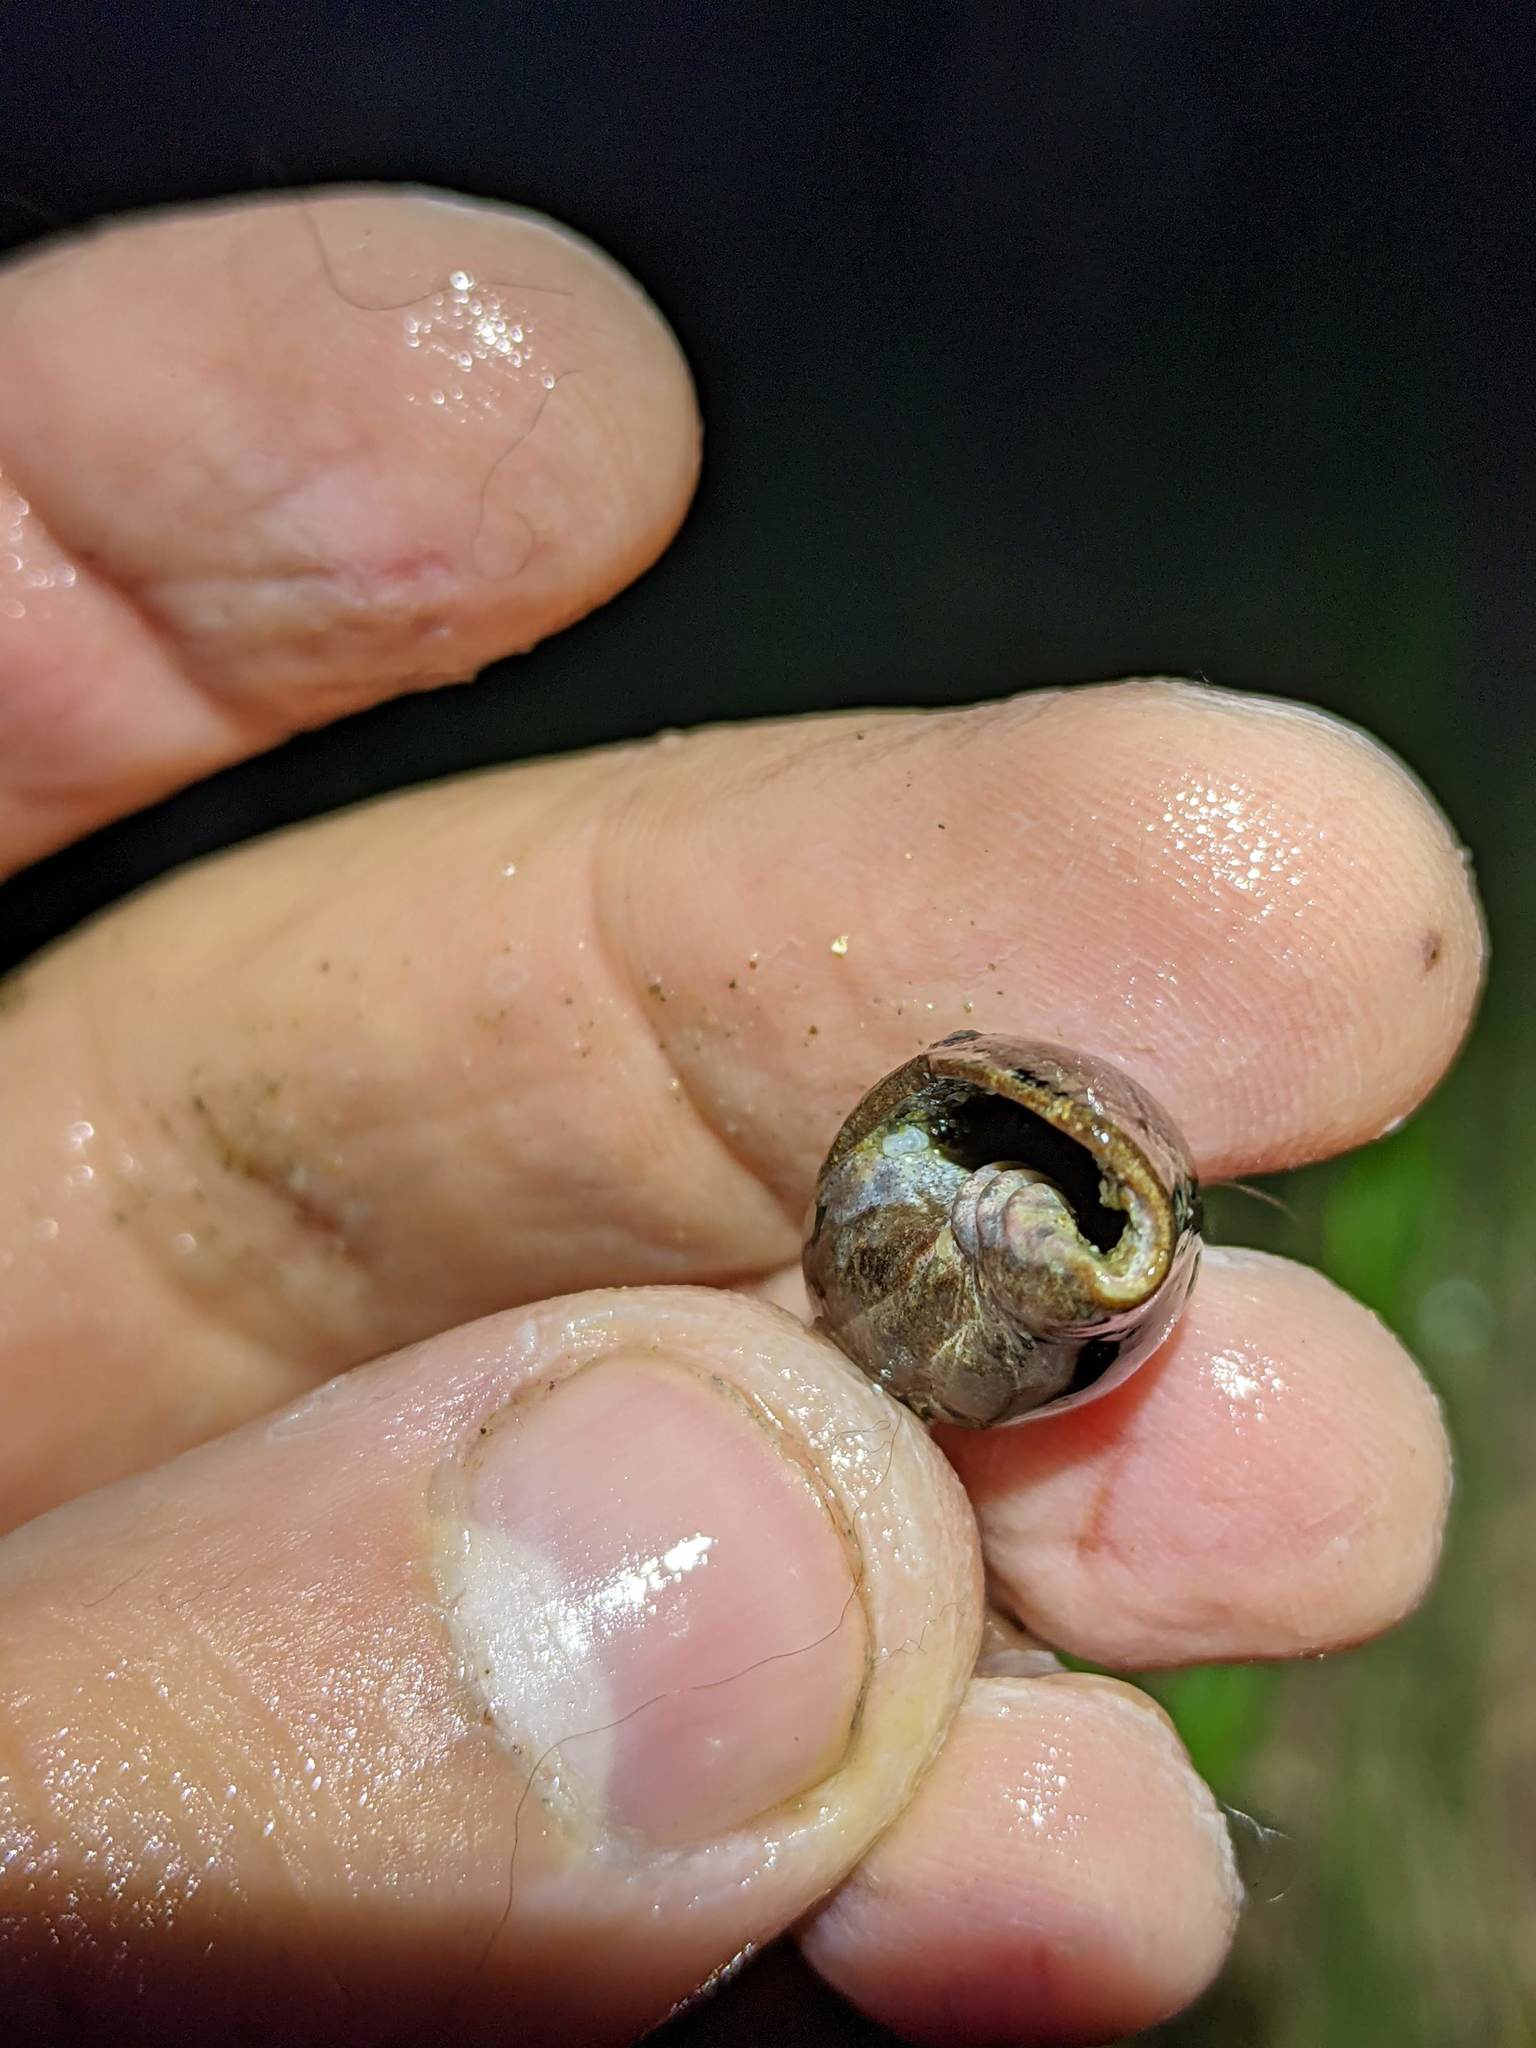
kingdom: Animalia
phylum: Mollusca
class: Gastropoda
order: Neogastropoda
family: Mitridae
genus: Atrimitra
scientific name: Atrimitra idae
